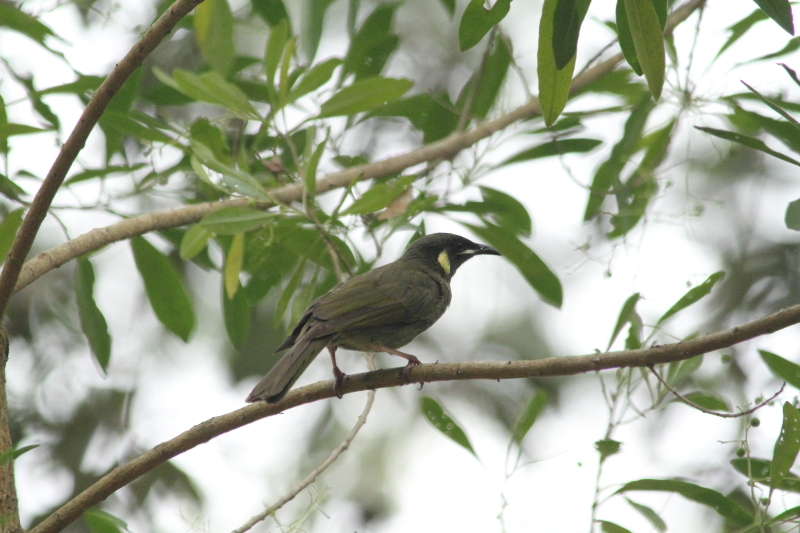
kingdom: Animalia
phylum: Chordata
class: Aves
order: Passeriformes
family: Meliphagidae
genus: Meliphaga
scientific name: Meliphaga lewinii
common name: Lewin's honeyeater
